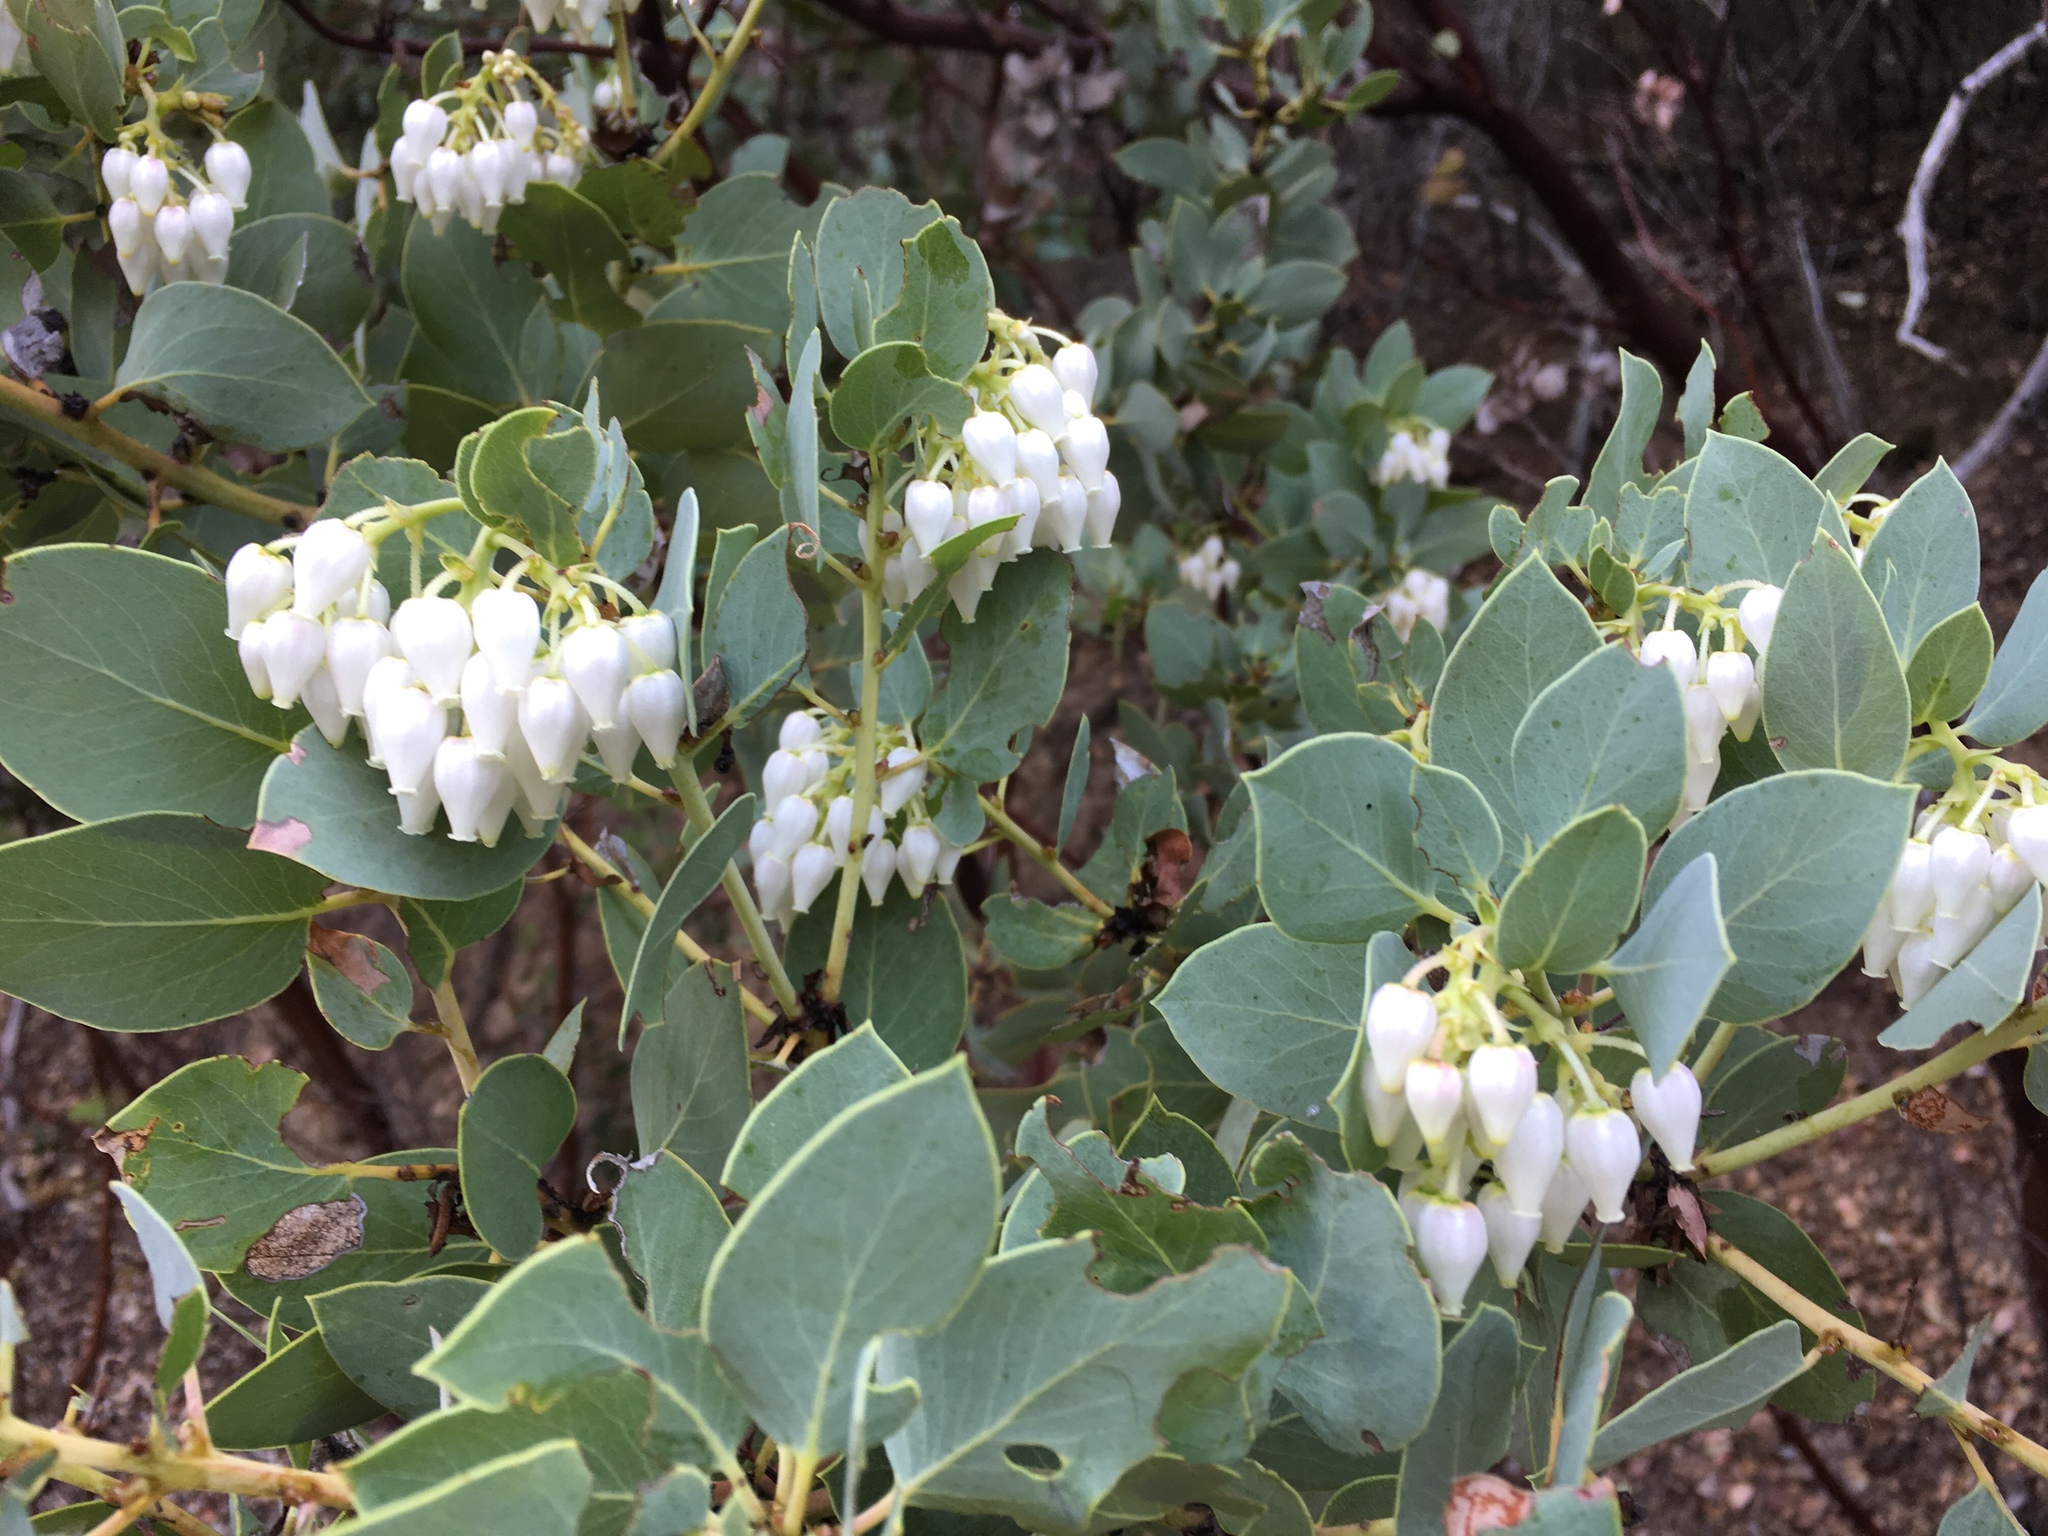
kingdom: Plantae
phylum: Tracheophyta
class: Magnoliopsida
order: Ericales
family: Ericaceae
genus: Arctostaphylos
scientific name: Arctostaphylos glauca
